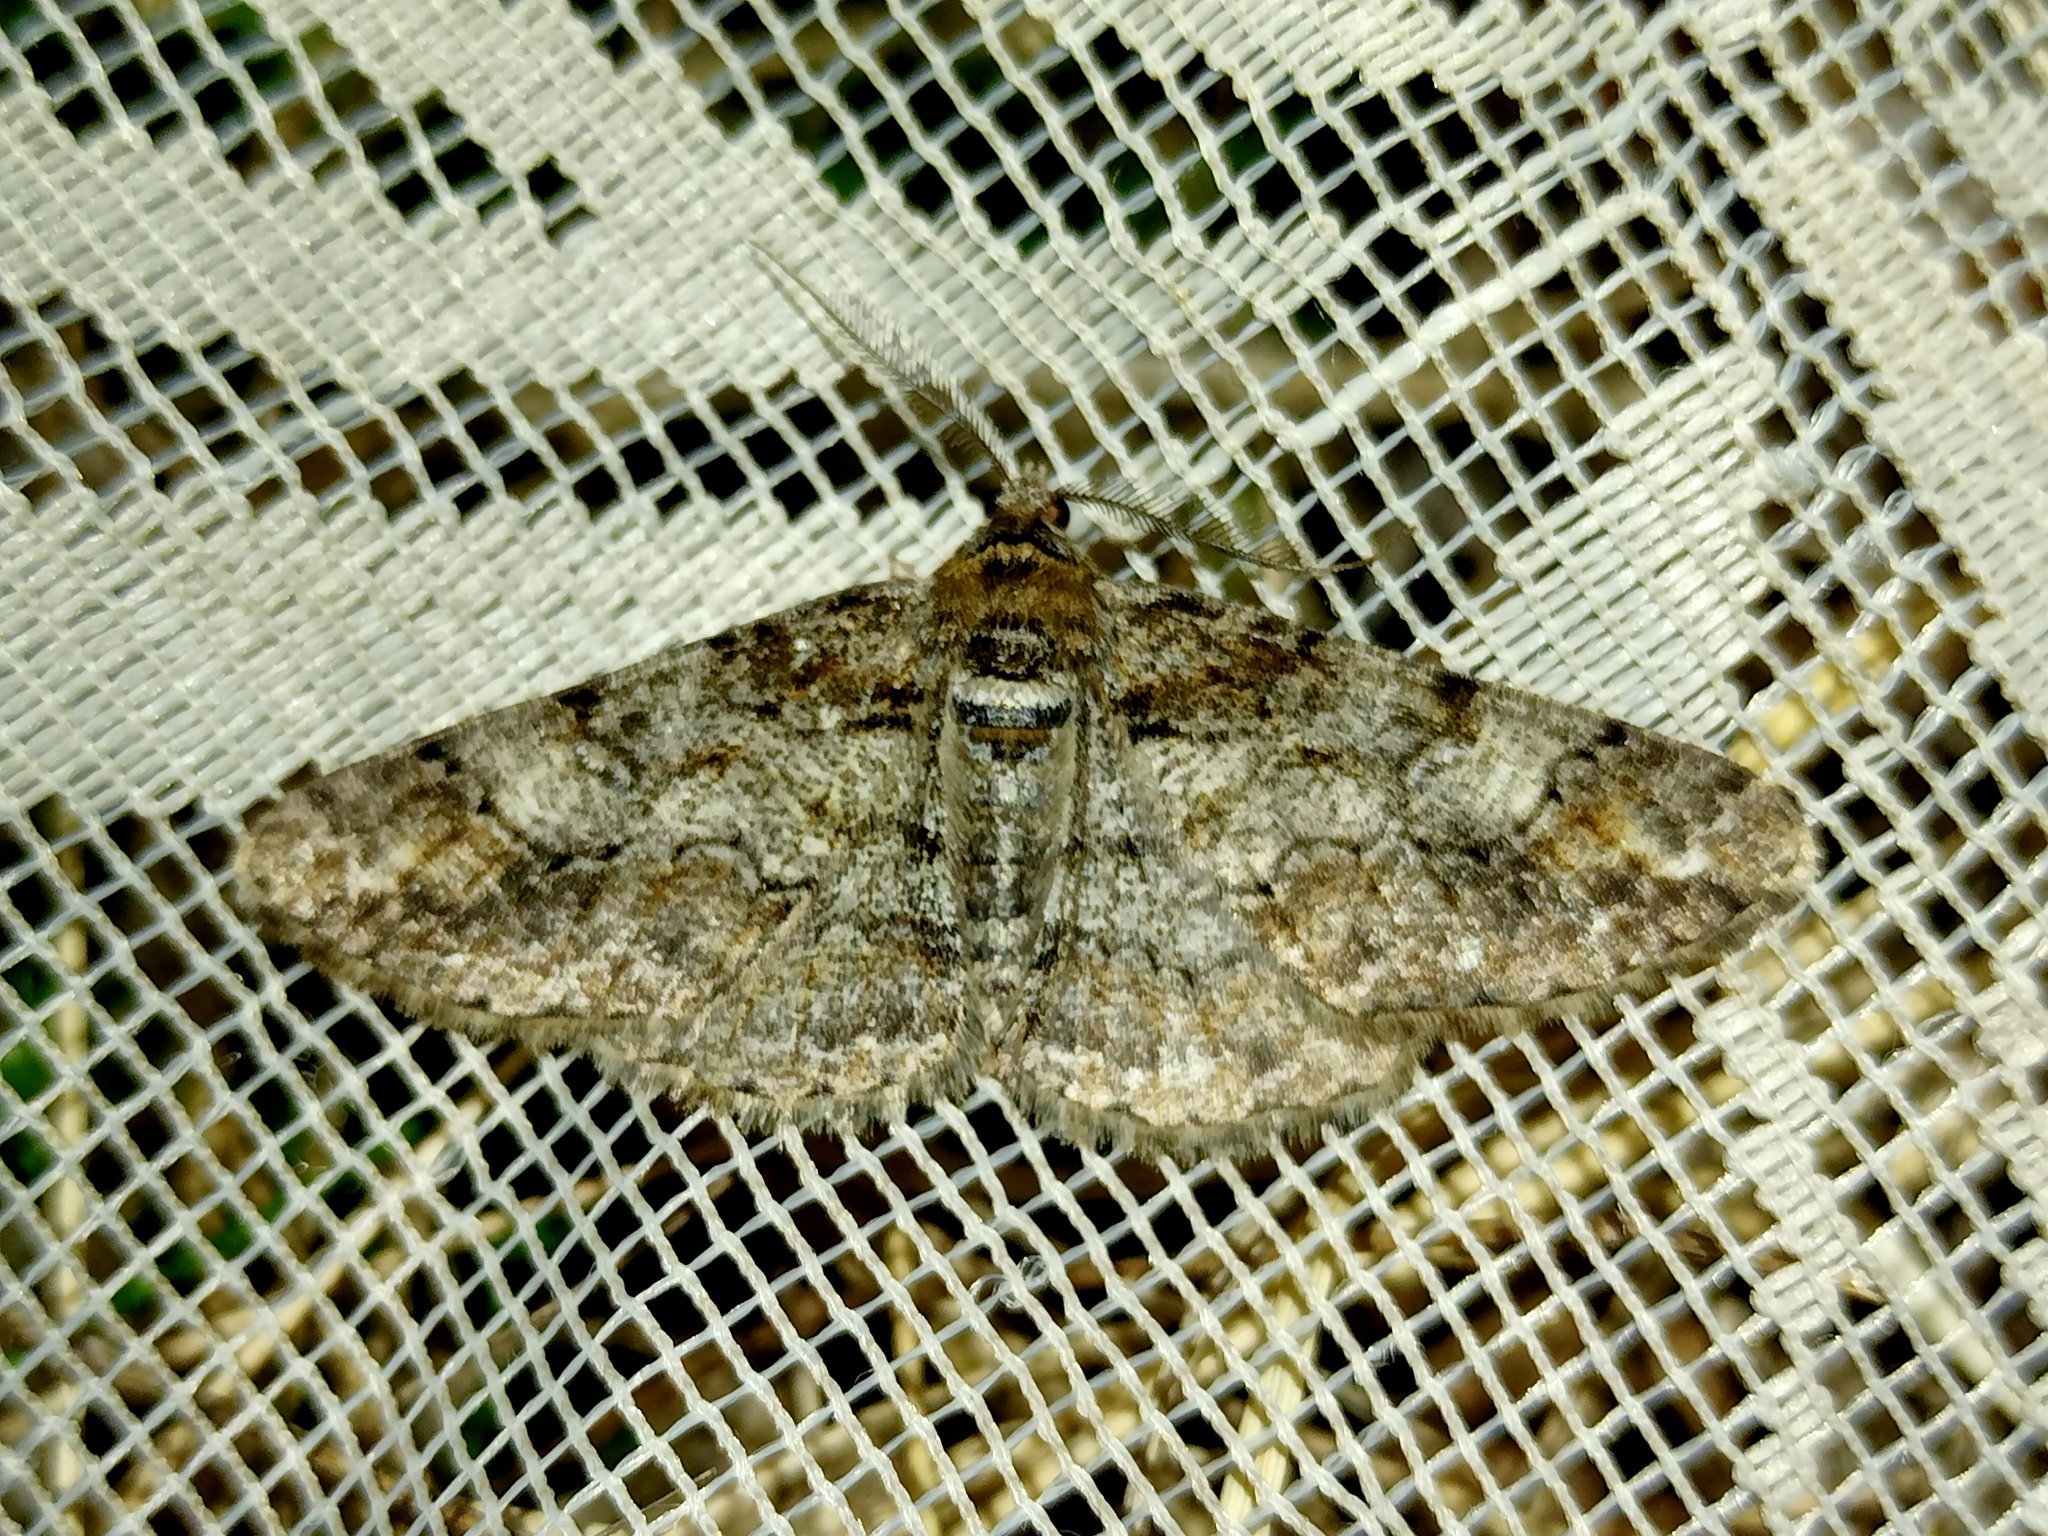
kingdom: Animalia
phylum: Arthropoda
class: Insecta
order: Lepidoptera
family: Geometridae
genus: Cleora
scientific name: Cleora cinctaria
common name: Ringed carpet
